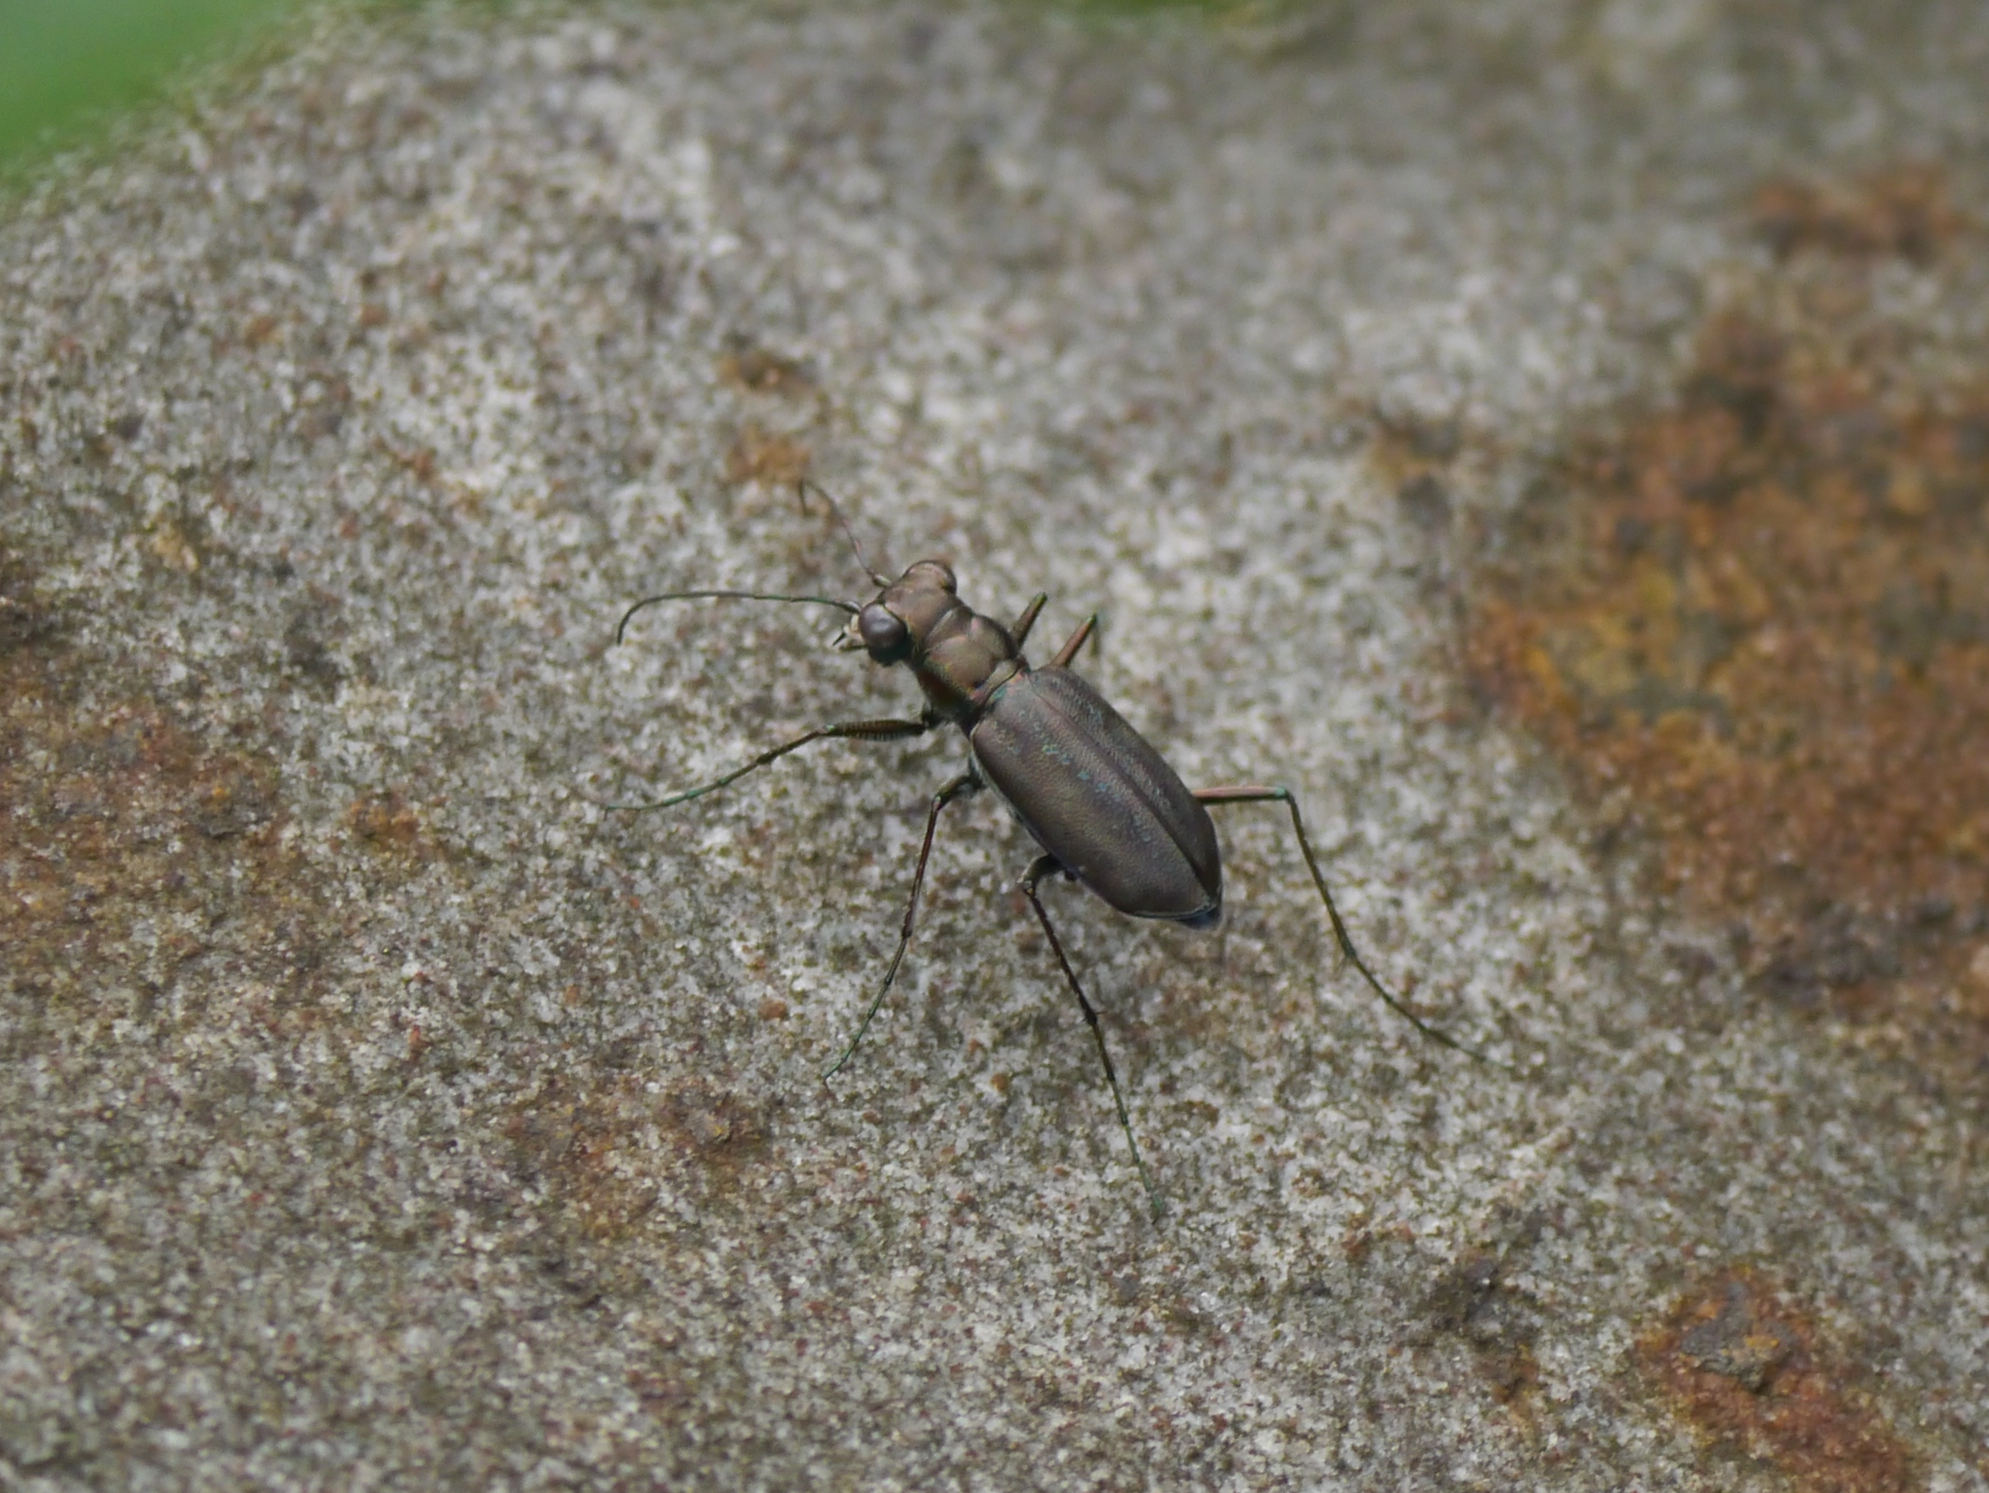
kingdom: Animalia
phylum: Arthropoda
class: Insecta
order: Coleoptera
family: Carabidae
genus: Cicindela
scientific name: Cicindela punctulata
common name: Punctured tiger beetle
